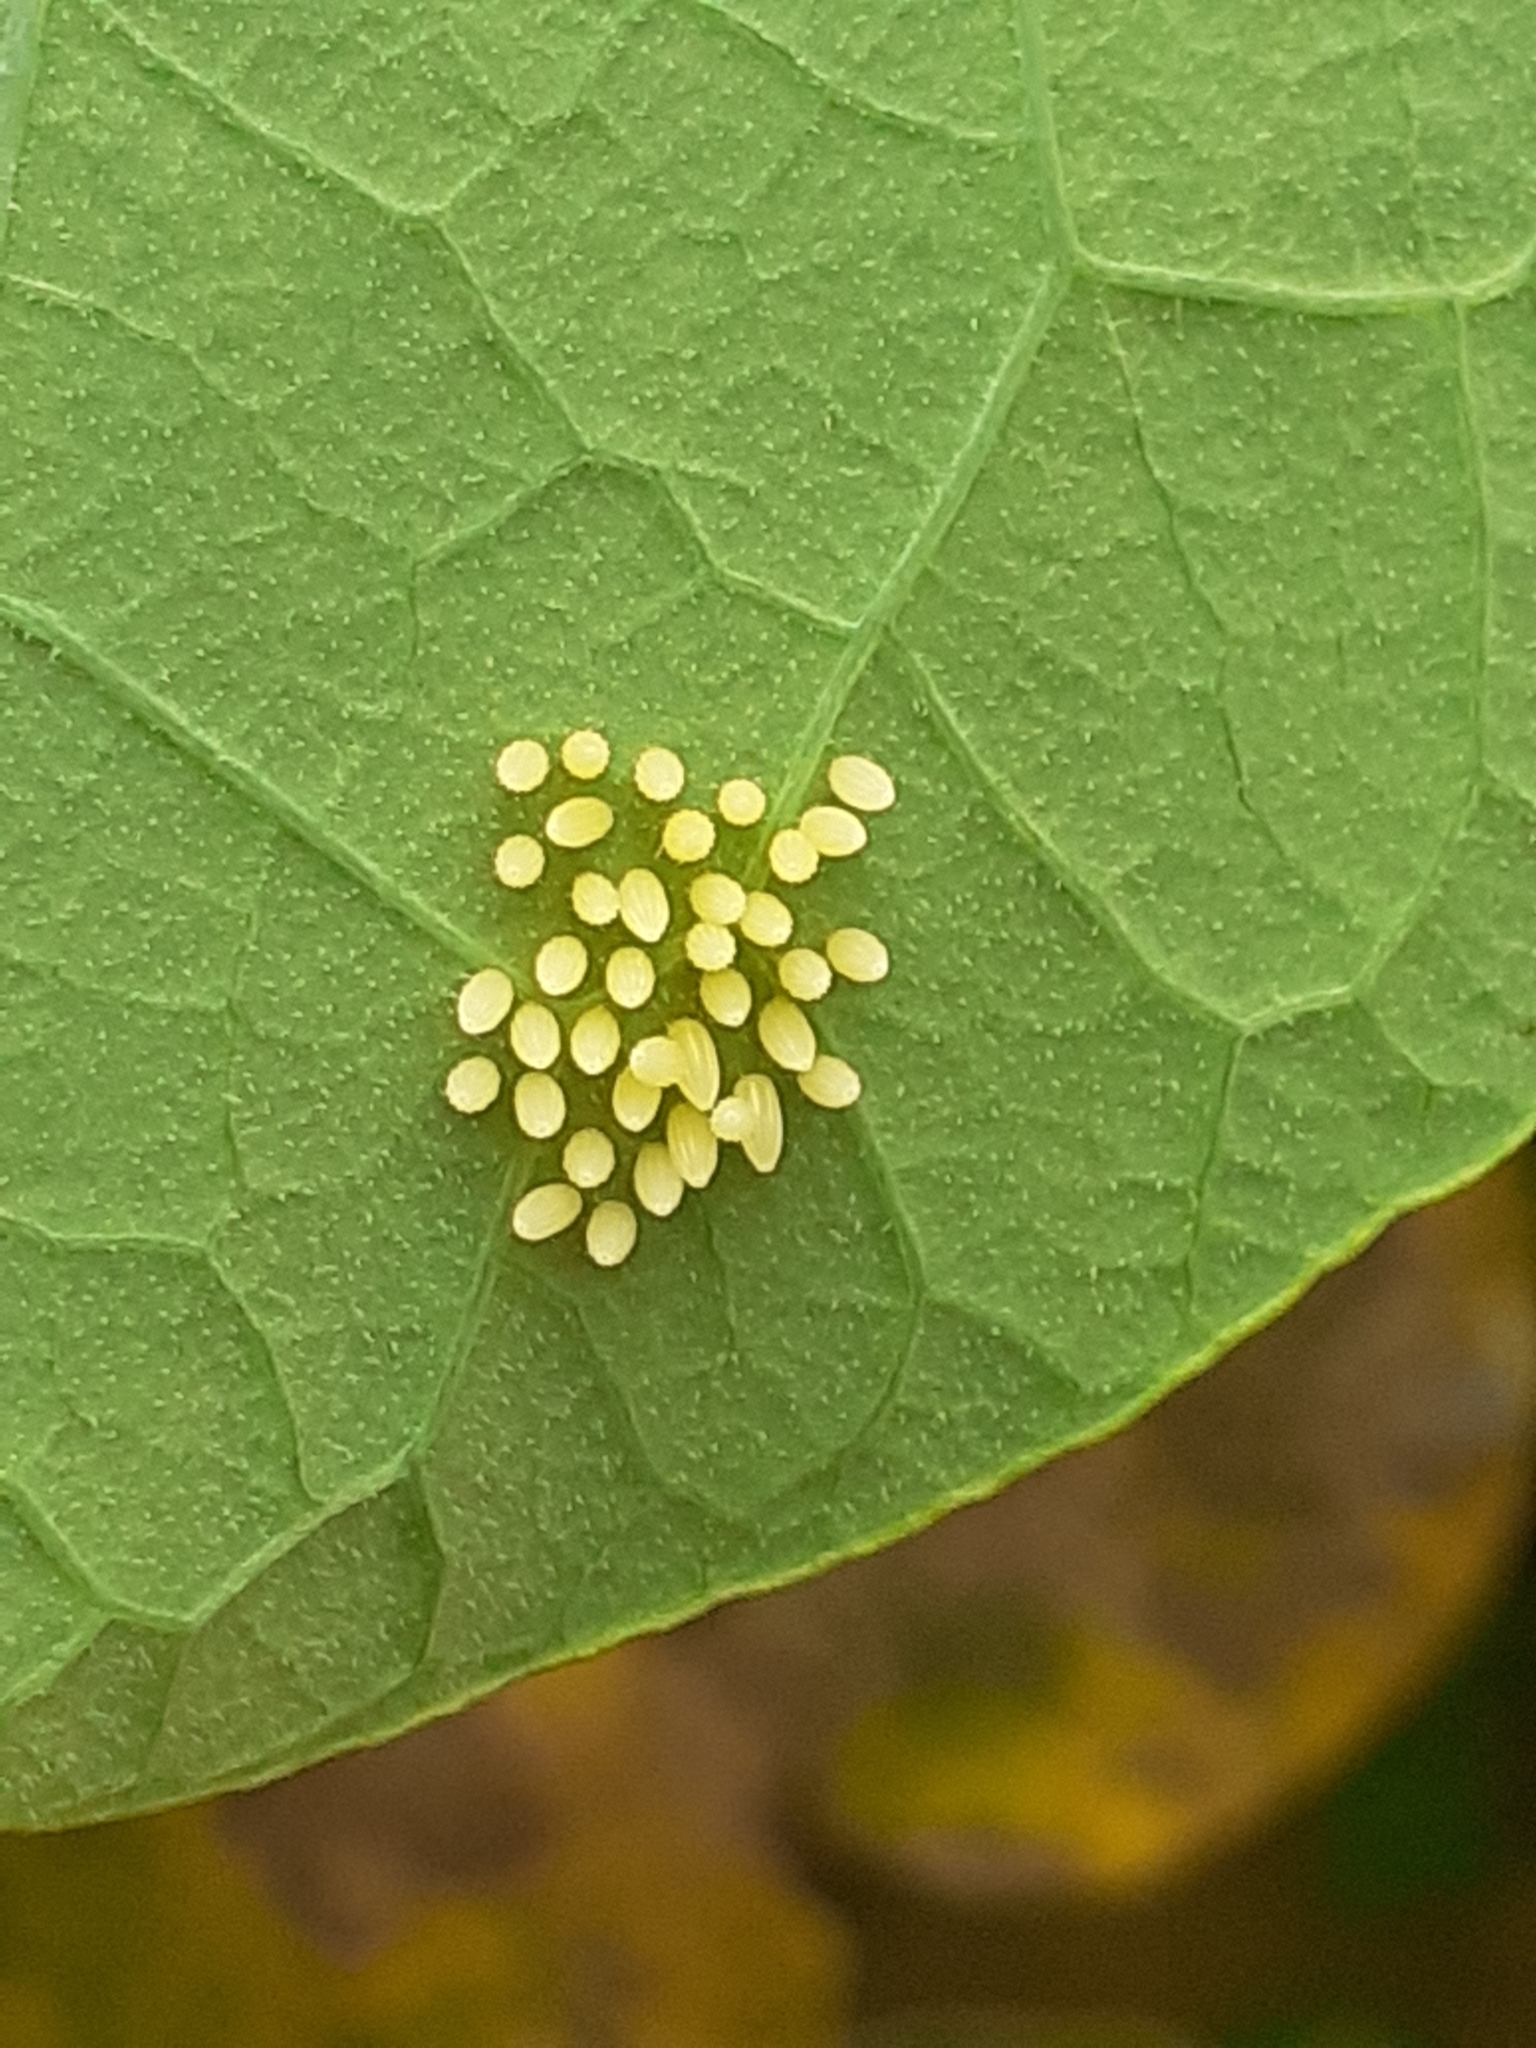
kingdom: Animalia
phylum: Arthropoda
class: Insecta
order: Lepidoptera
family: Pieridae
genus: Pieris
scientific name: Pieris cheiranthi
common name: Canary islands large white
